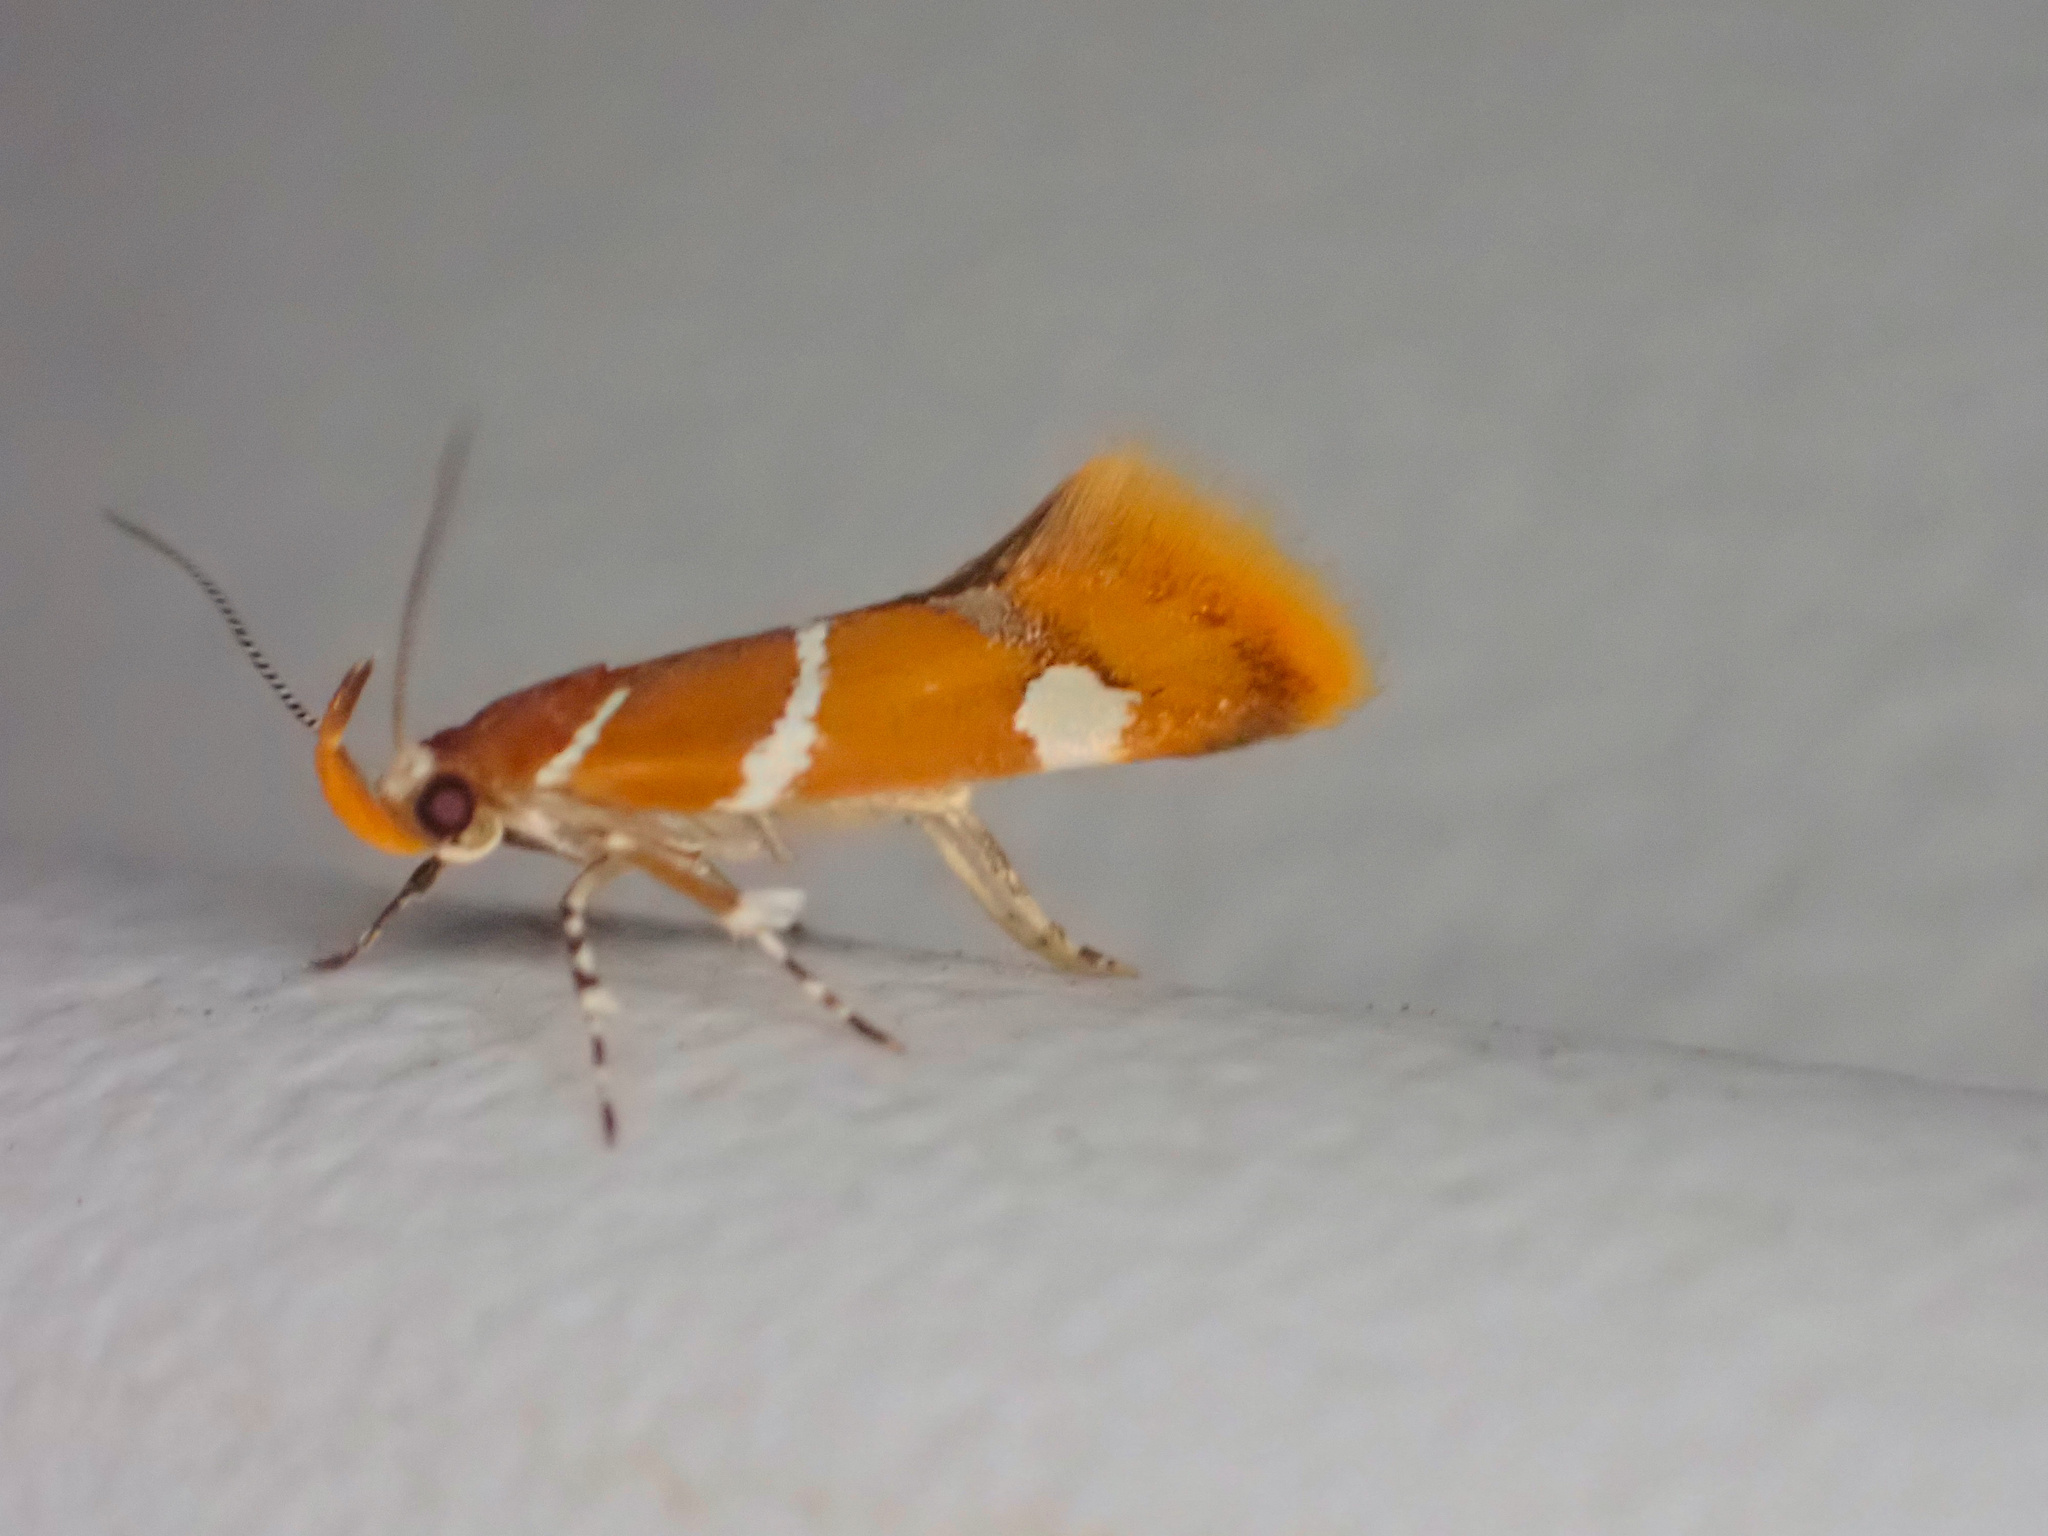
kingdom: Animalia
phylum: Arthropoda
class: Insecta
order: Lepidoptera
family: Oecophoridae
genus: Promalactis
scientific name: Promalactis suzukiella
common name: Moth
